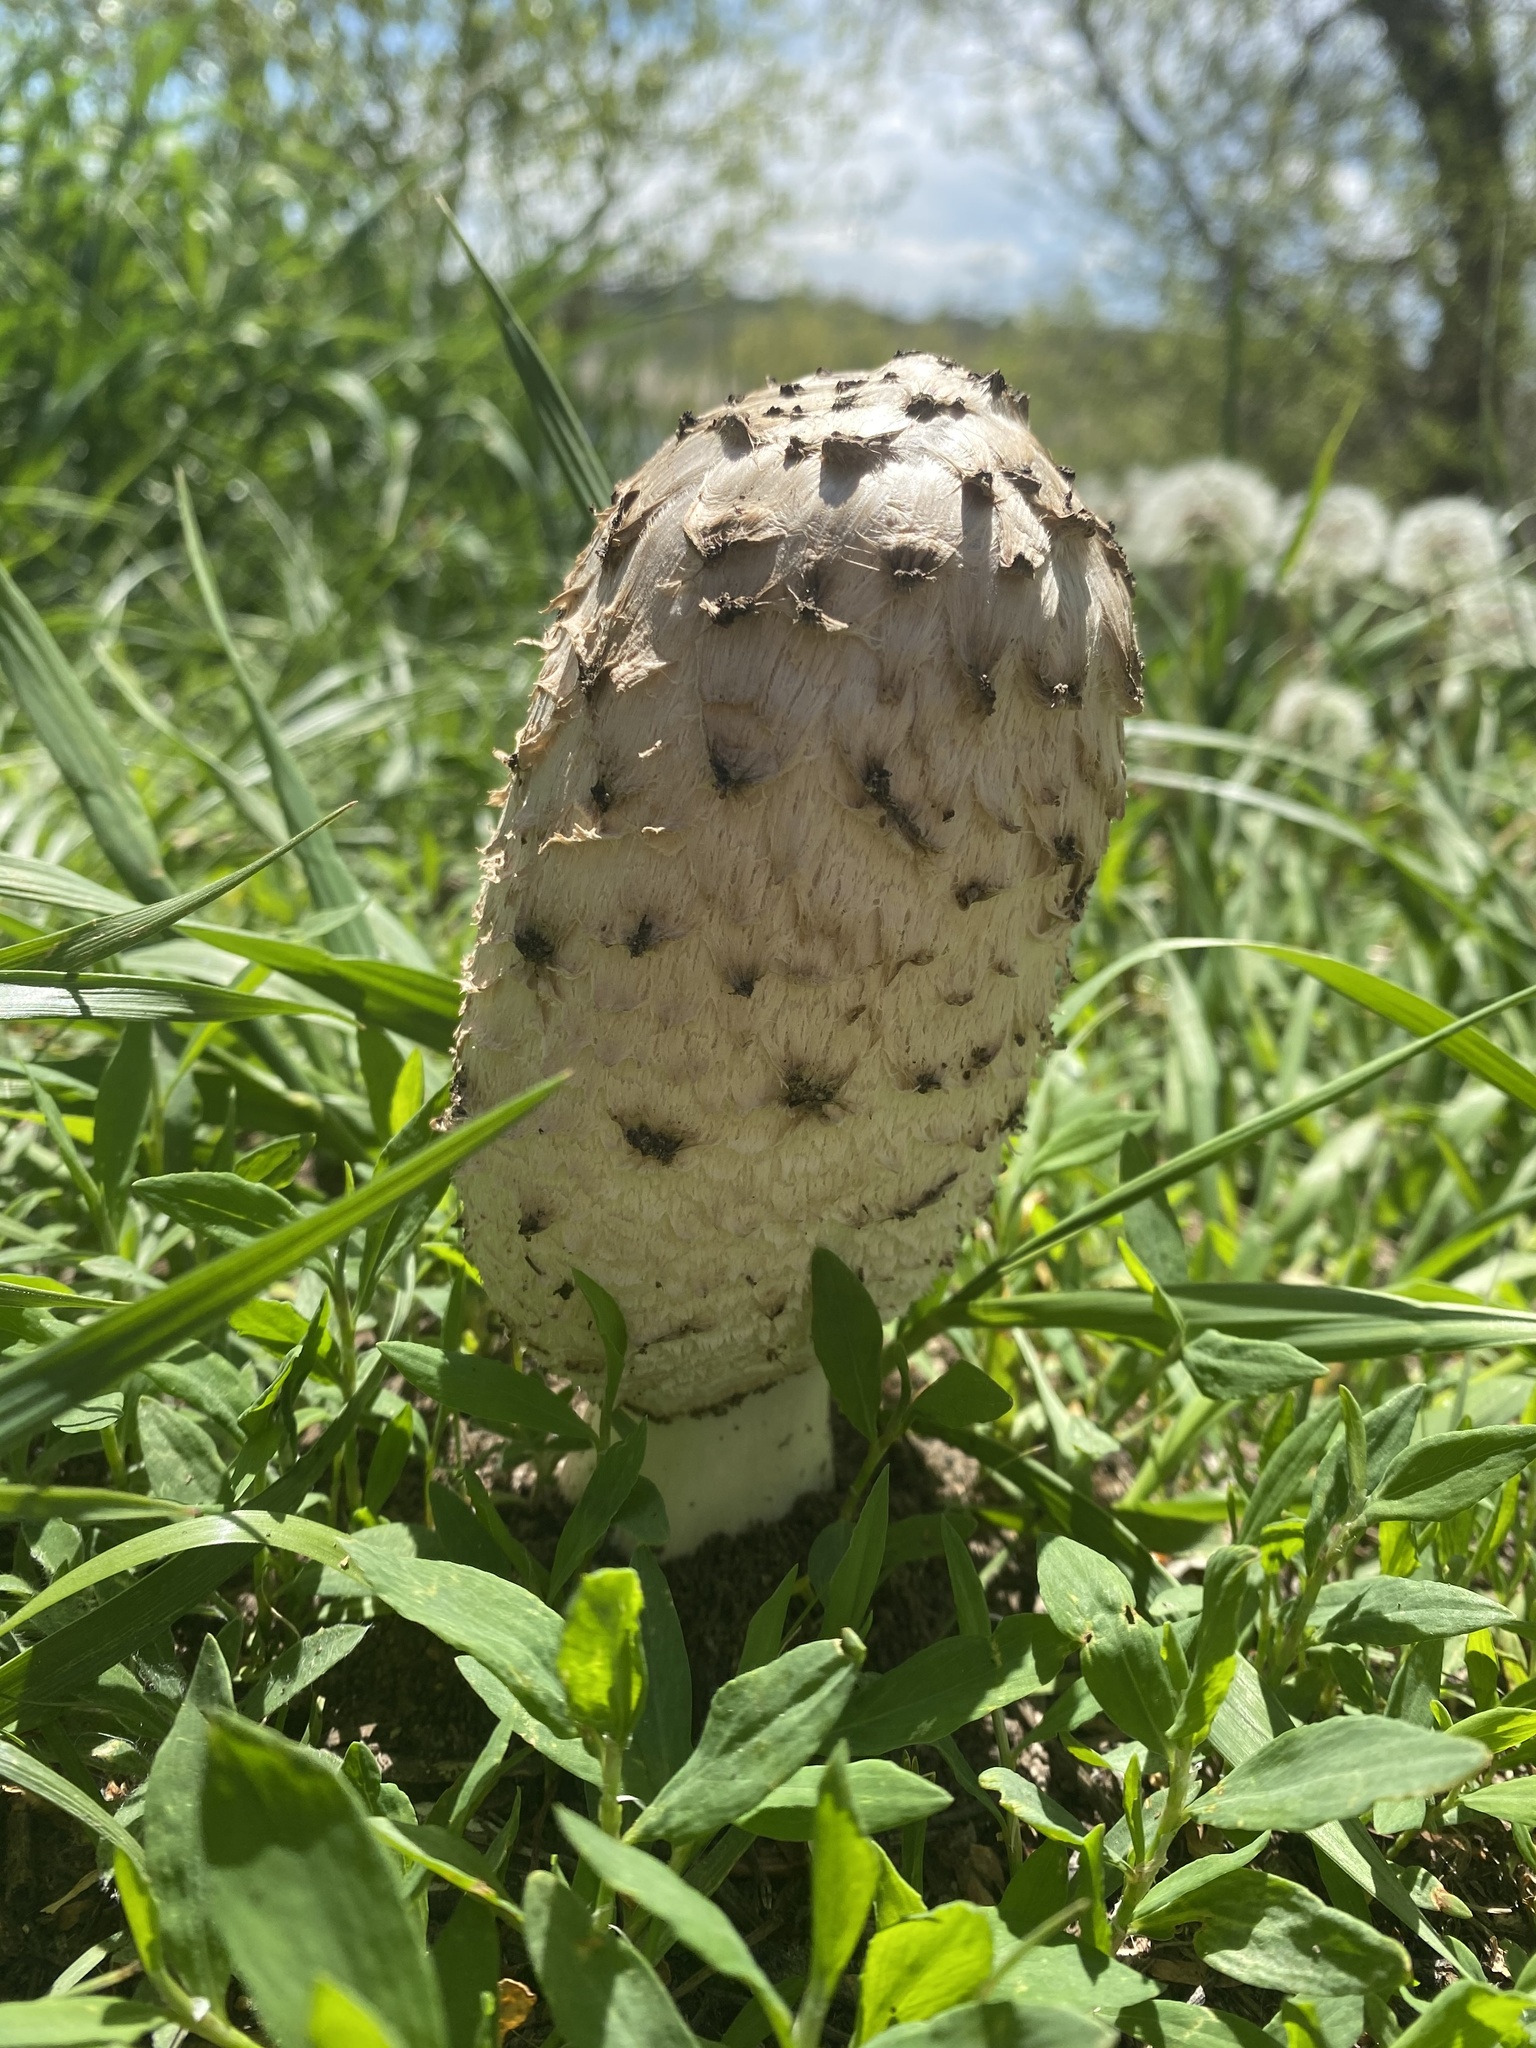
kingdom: Fungi
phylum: Basidiomycota
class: Agaricomycetes
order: Agaricales
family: Agaricaceae
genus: Coprinus
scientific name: Coprinus comatus
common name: Lawyer's wig
